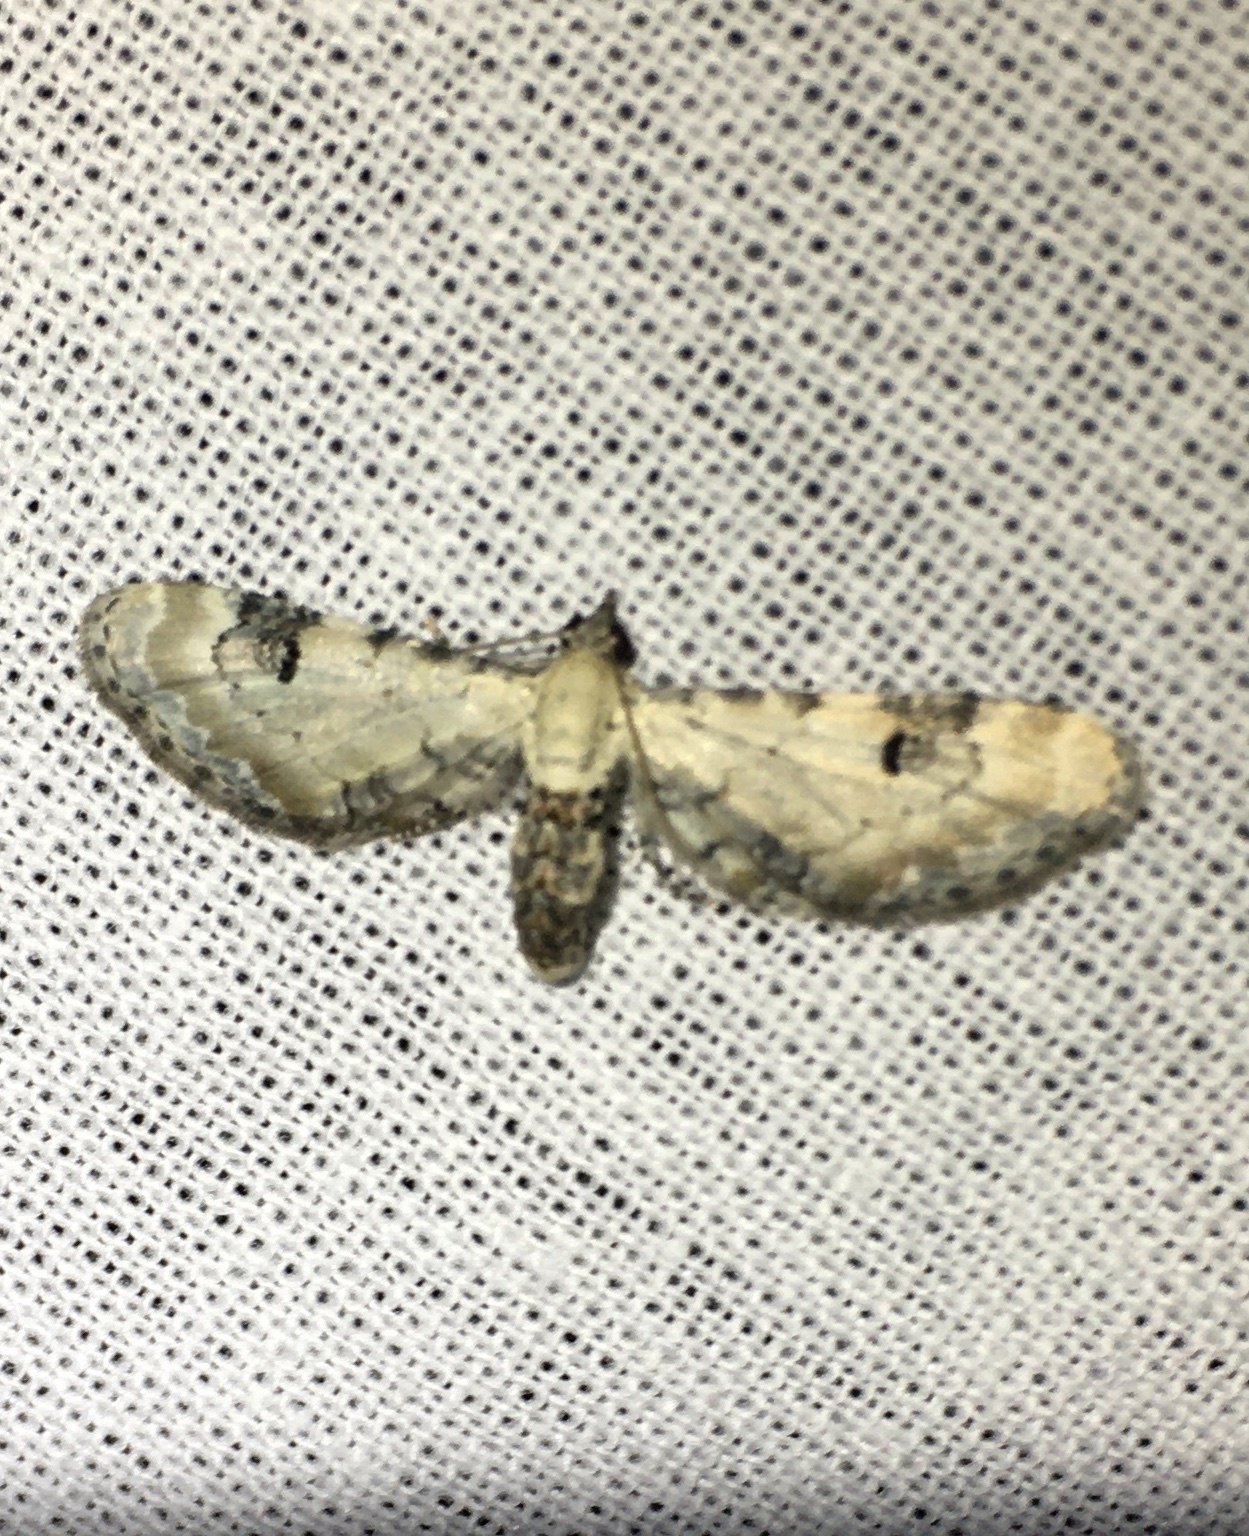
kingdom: Animalia
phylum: Arthropoda
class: Insecta
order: Lepidoptera
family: Geometridae
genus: Eupithecia
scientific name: Eupithecia centaureata
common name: Lime-speck pug
